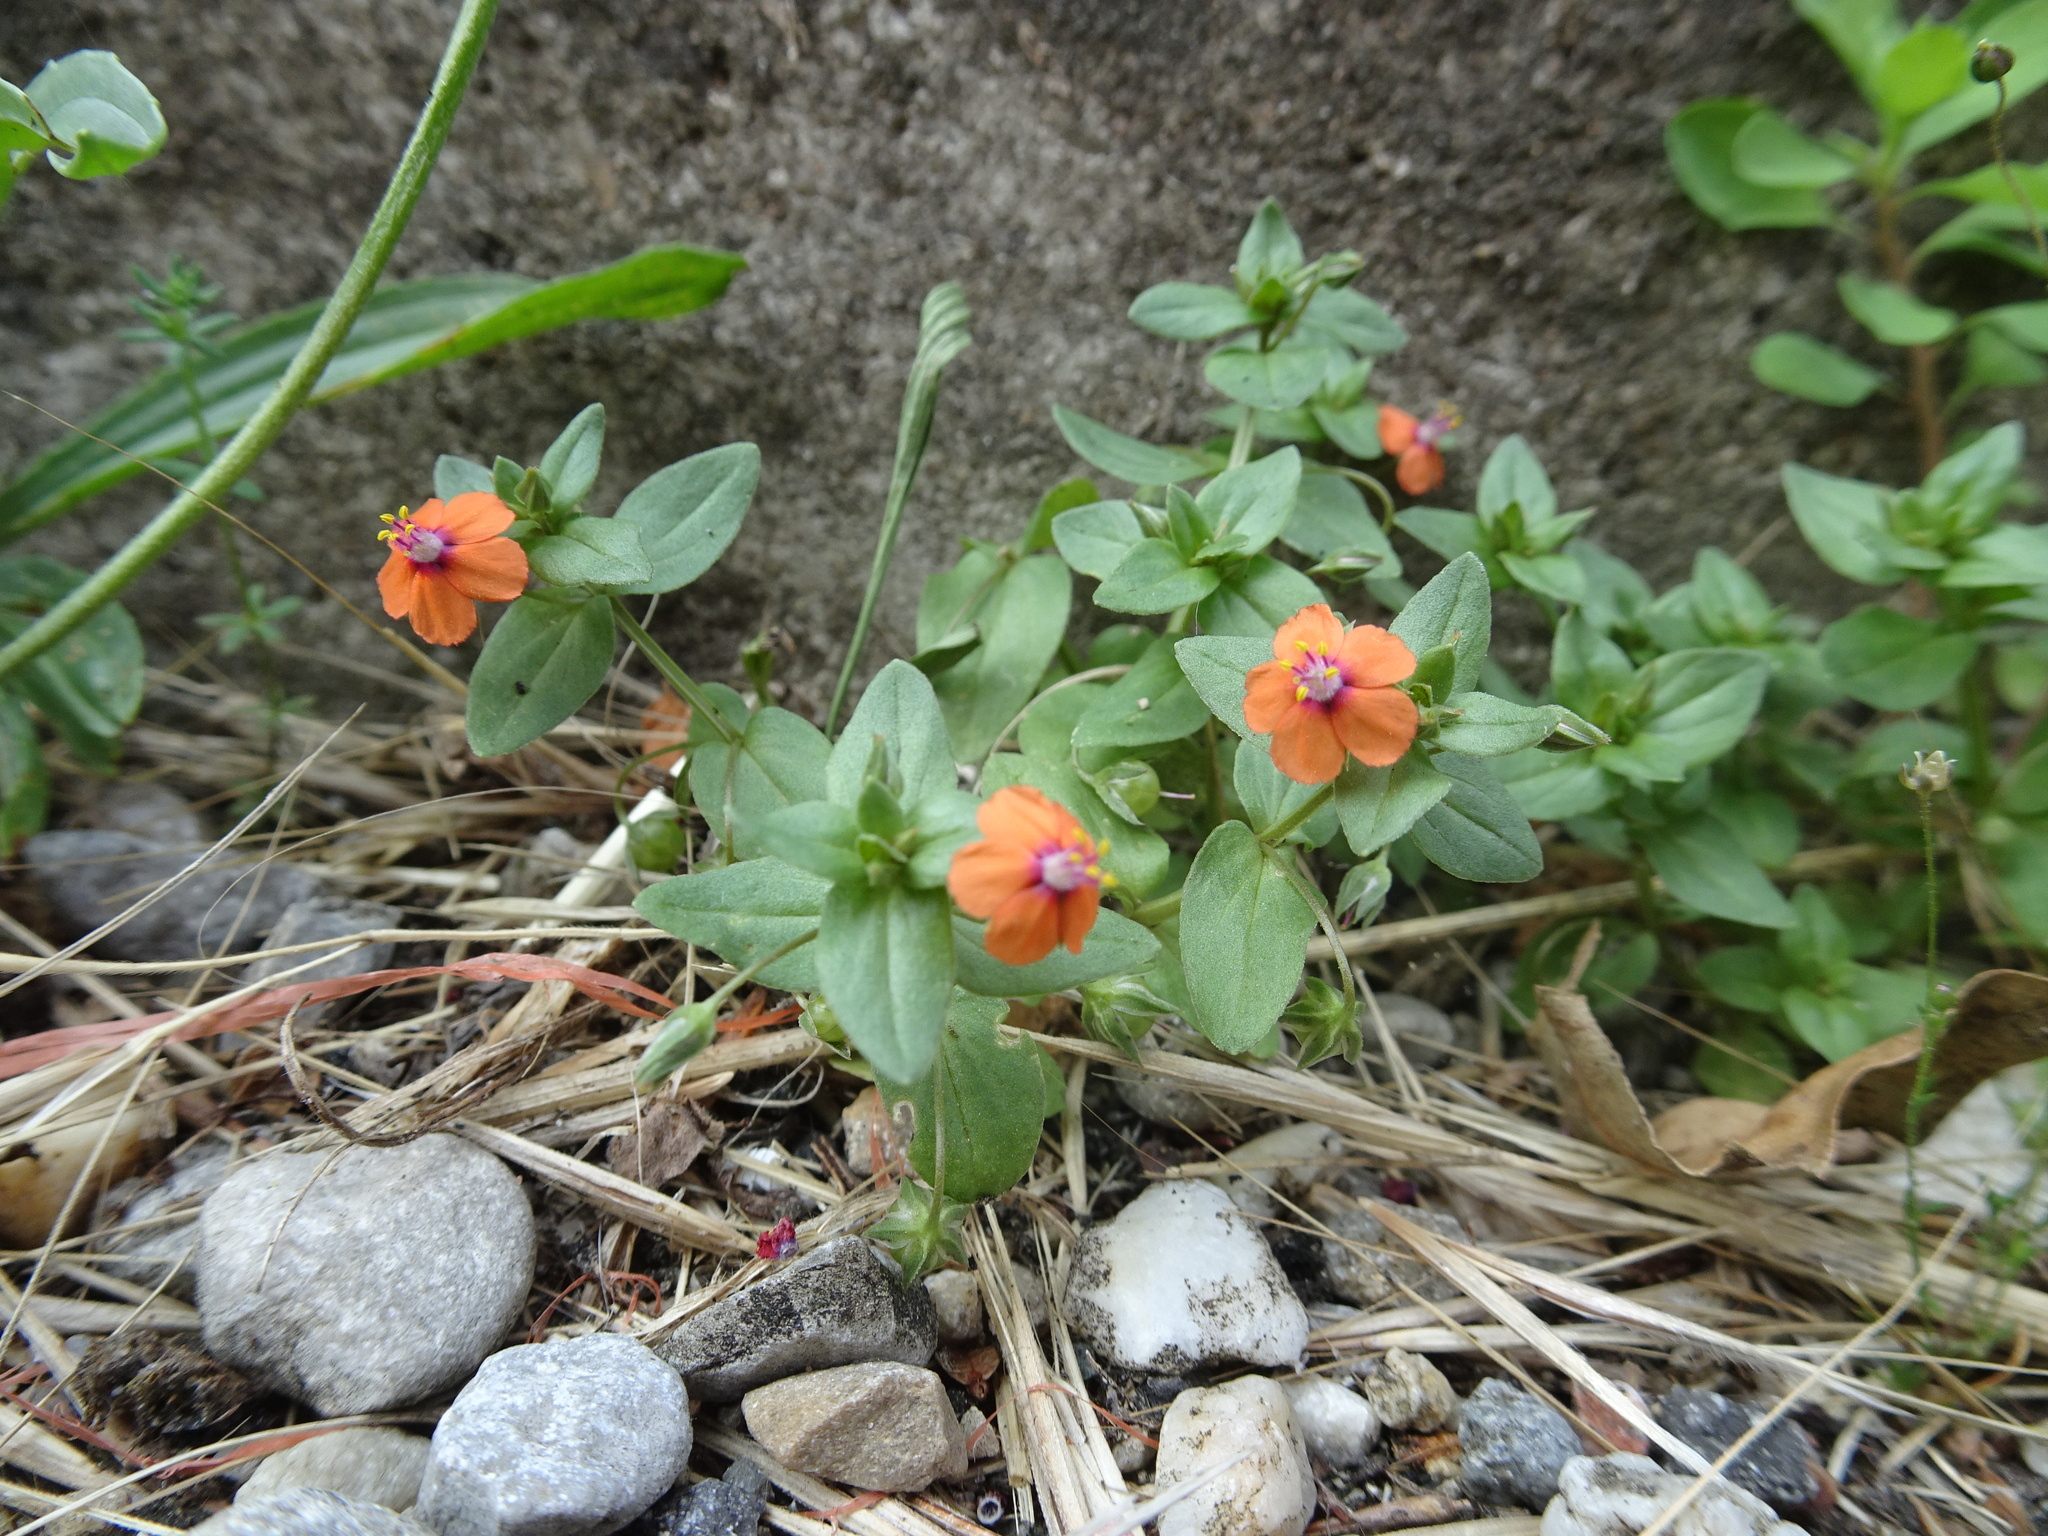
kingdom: Plantae
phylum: Tracheophyta
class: Magnoliopsida
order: Ericales
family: Primulaceae
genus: Lysimachia
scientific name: Lysimachia arvensis
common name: Scarlet pimpernel
